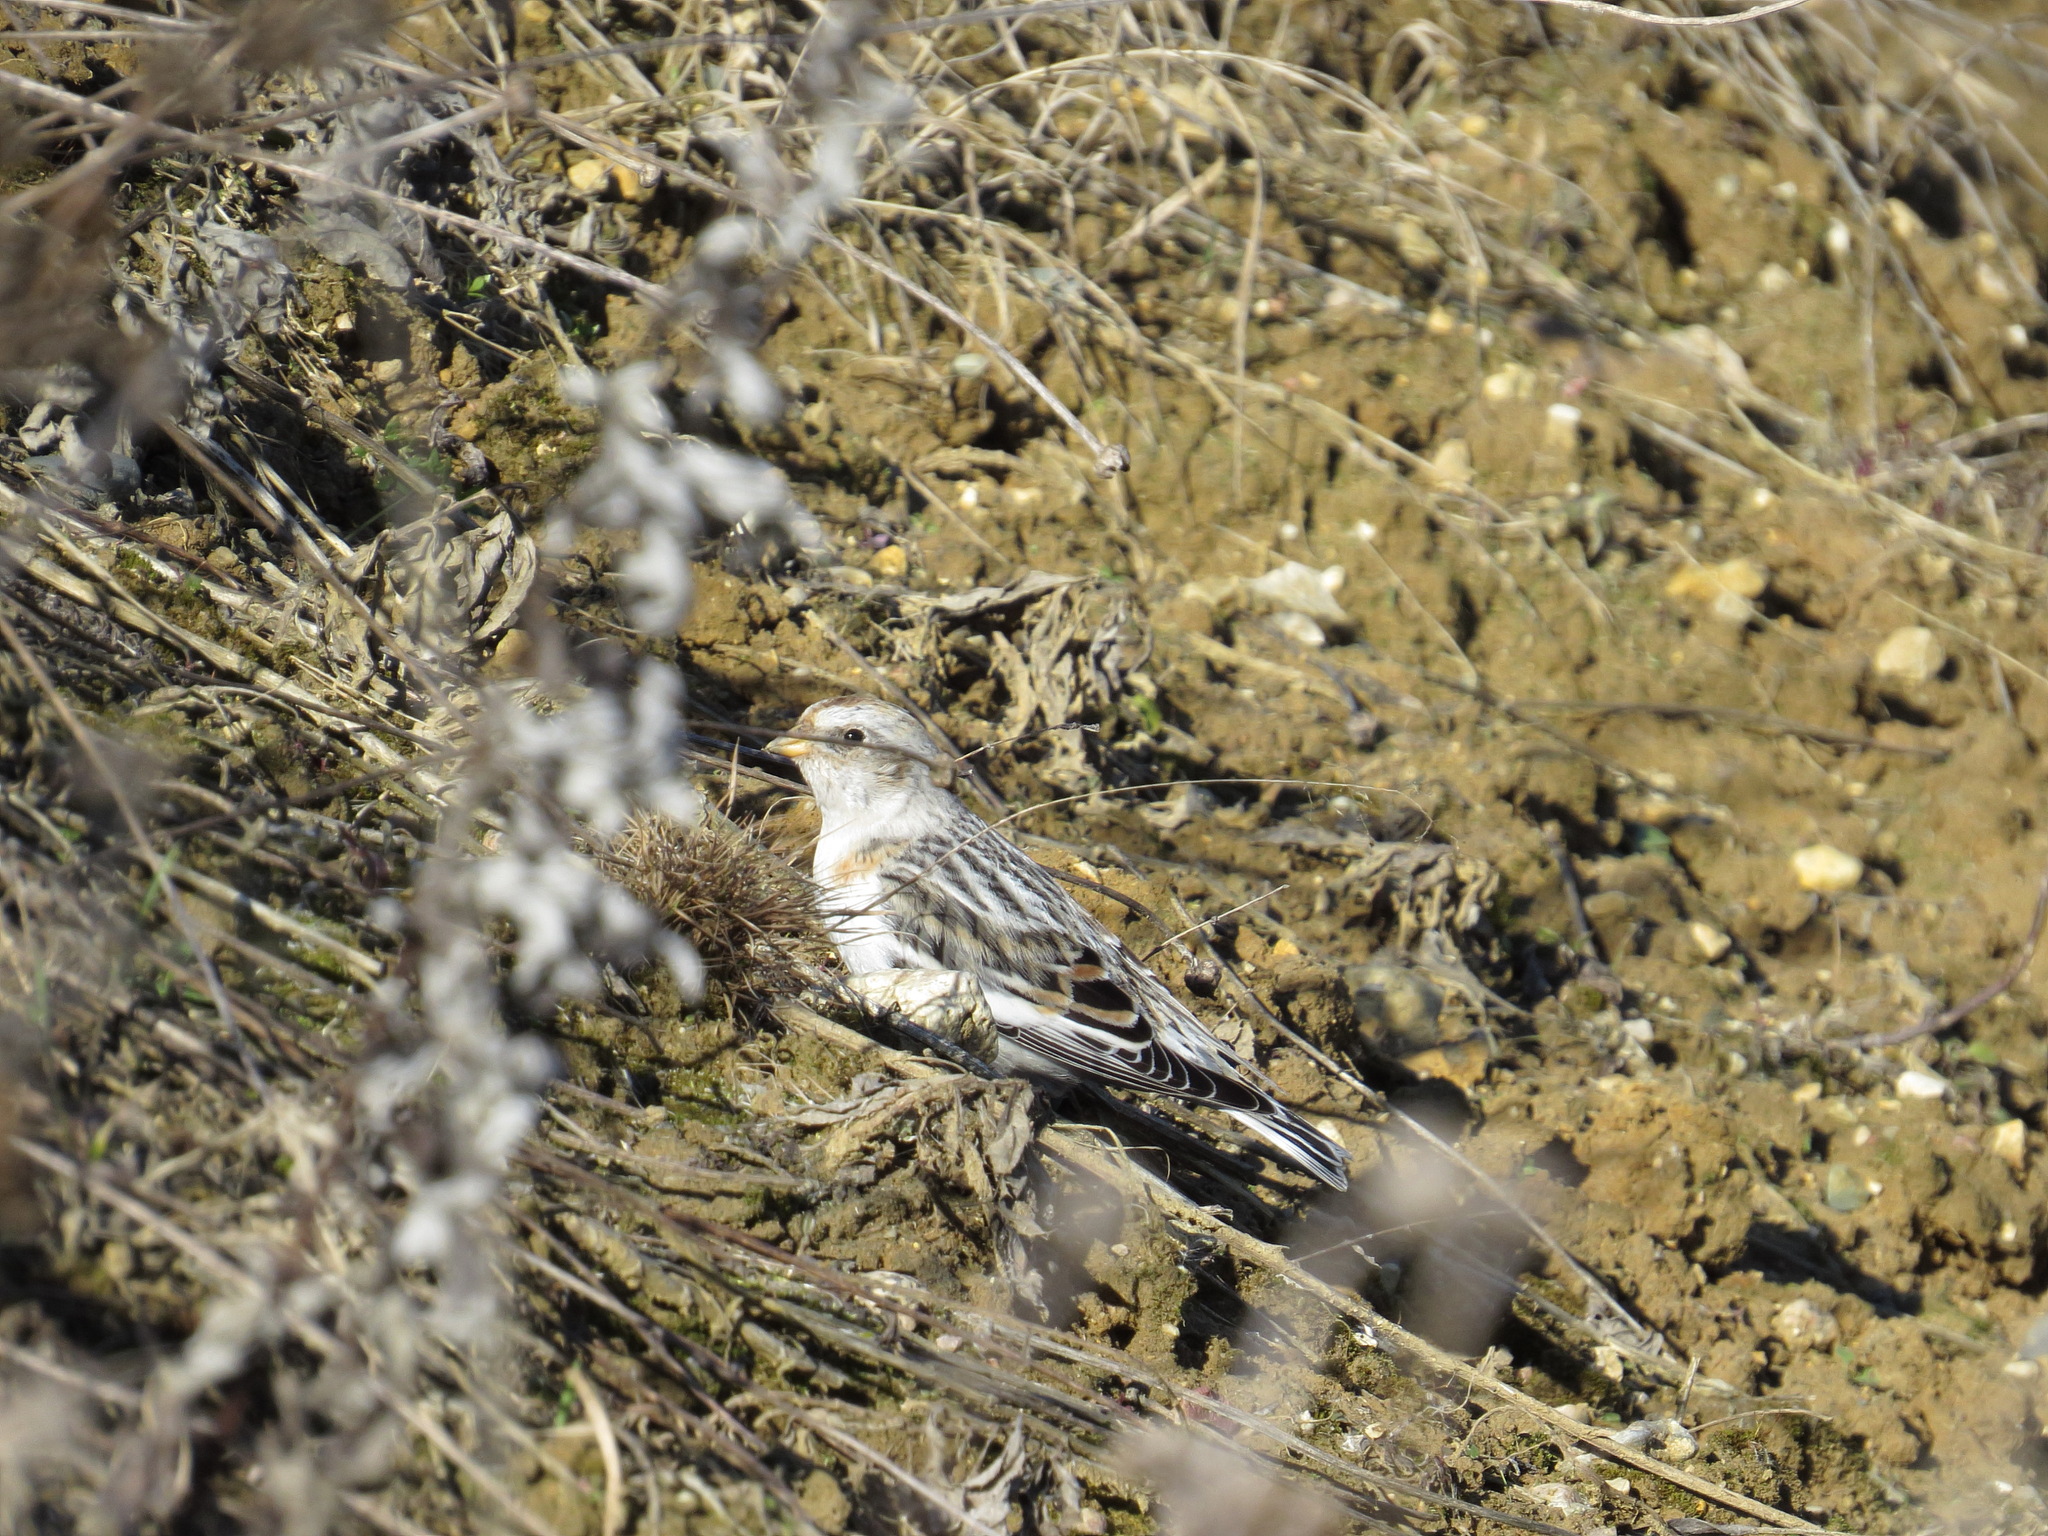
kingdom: Animalia
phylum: Chordata
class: Aves
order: Passeriformes
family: Calcariidae
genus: Plectrophenax
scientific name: Plectrophenax nivalis
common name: Snow bunting
